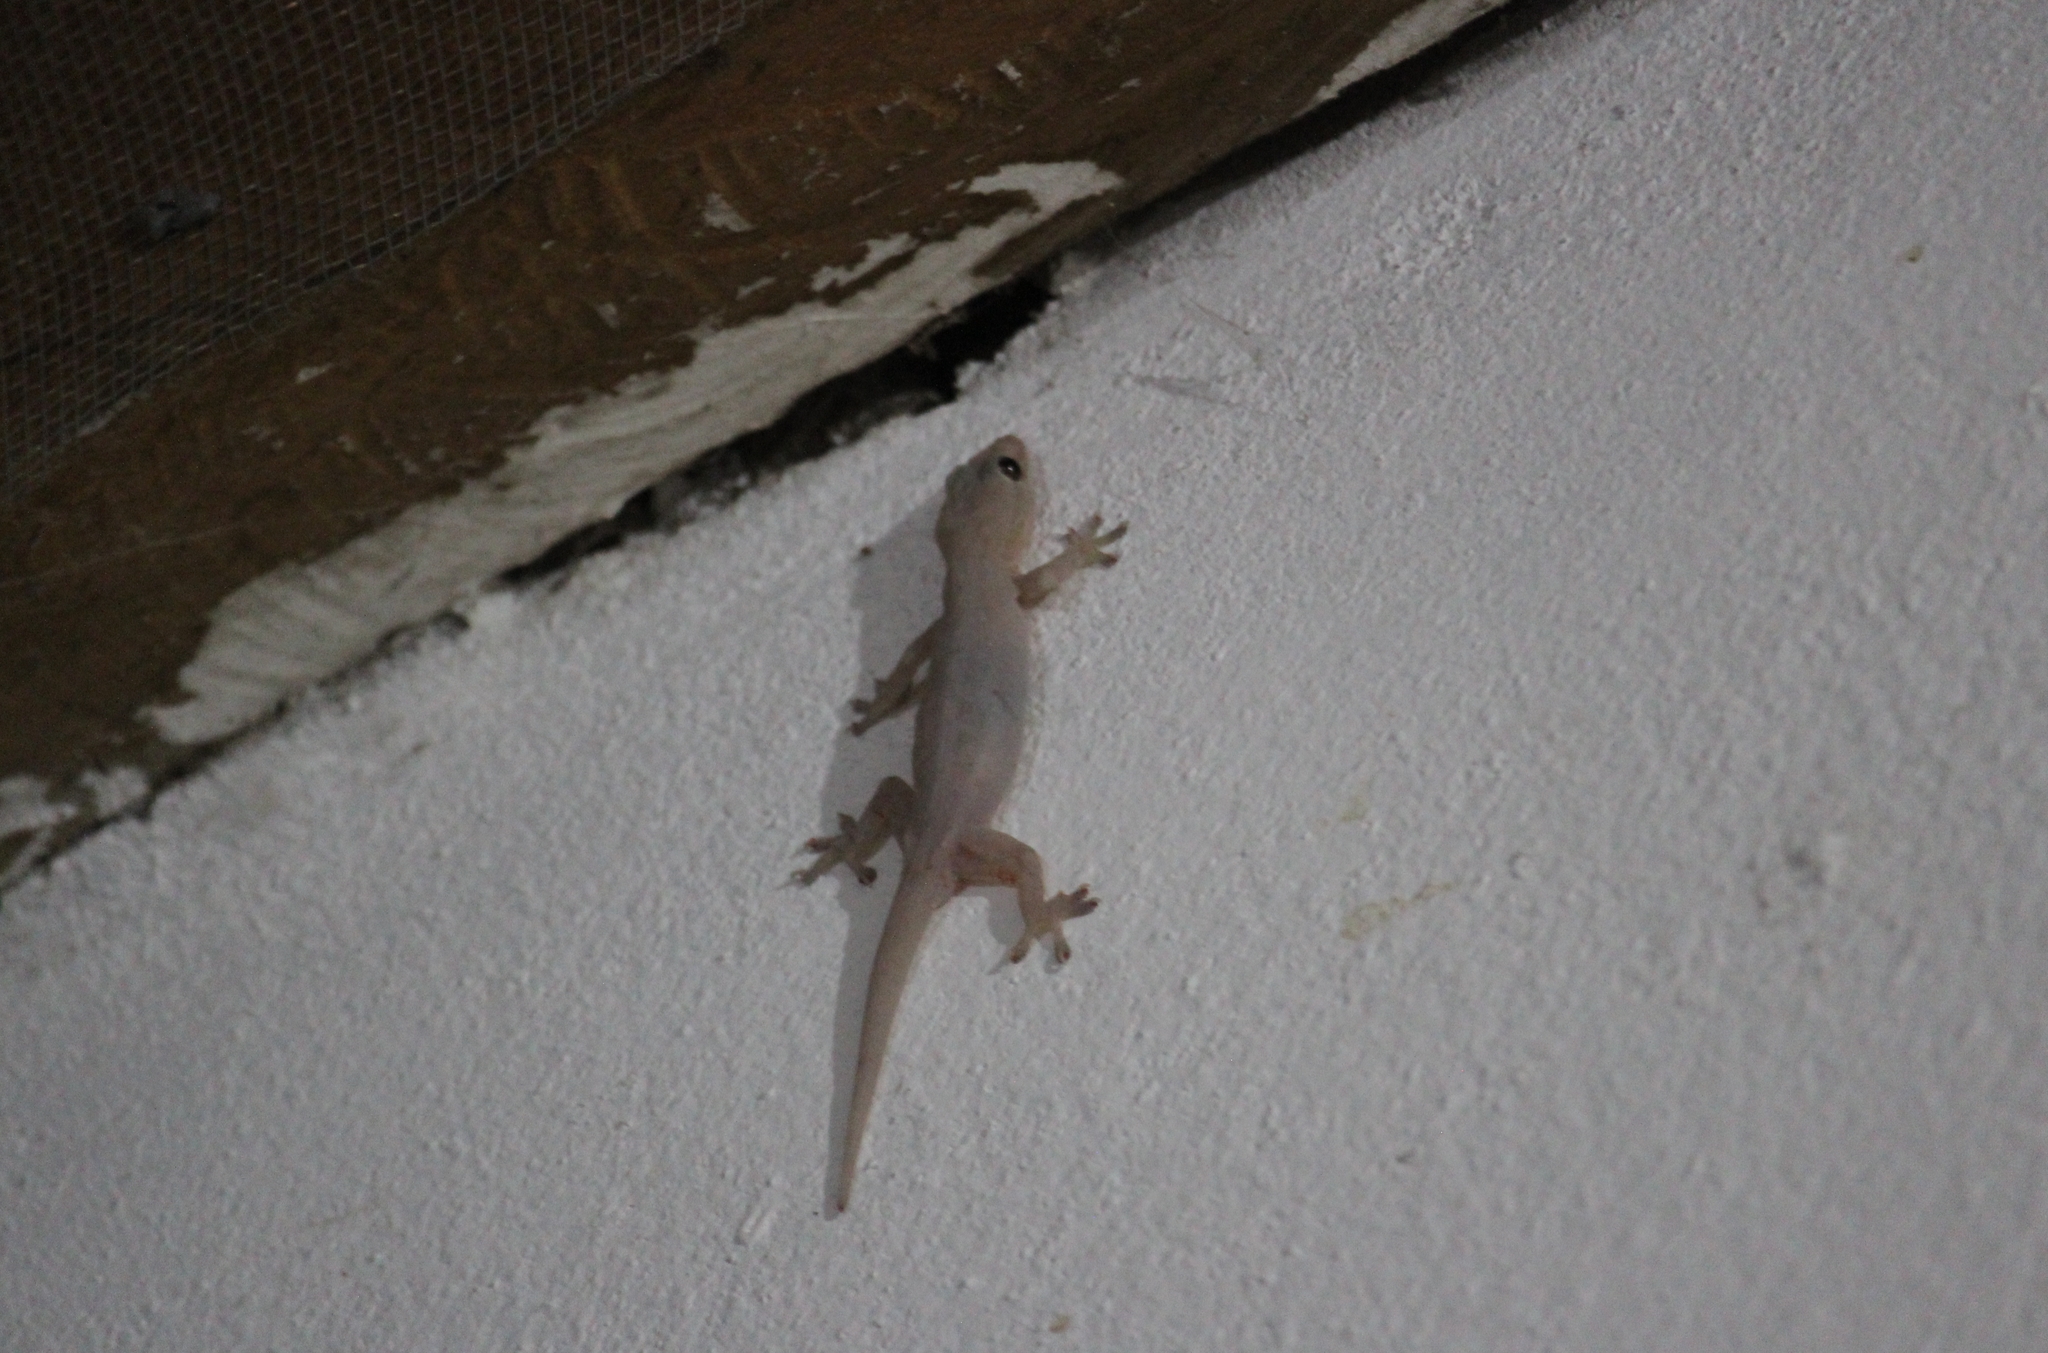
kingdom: Animalia
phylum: Chordata
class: Squamata
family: Gekkonidae
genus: Hemidactylus
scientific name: Hemidactylus frenatus
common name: Common house gecko
